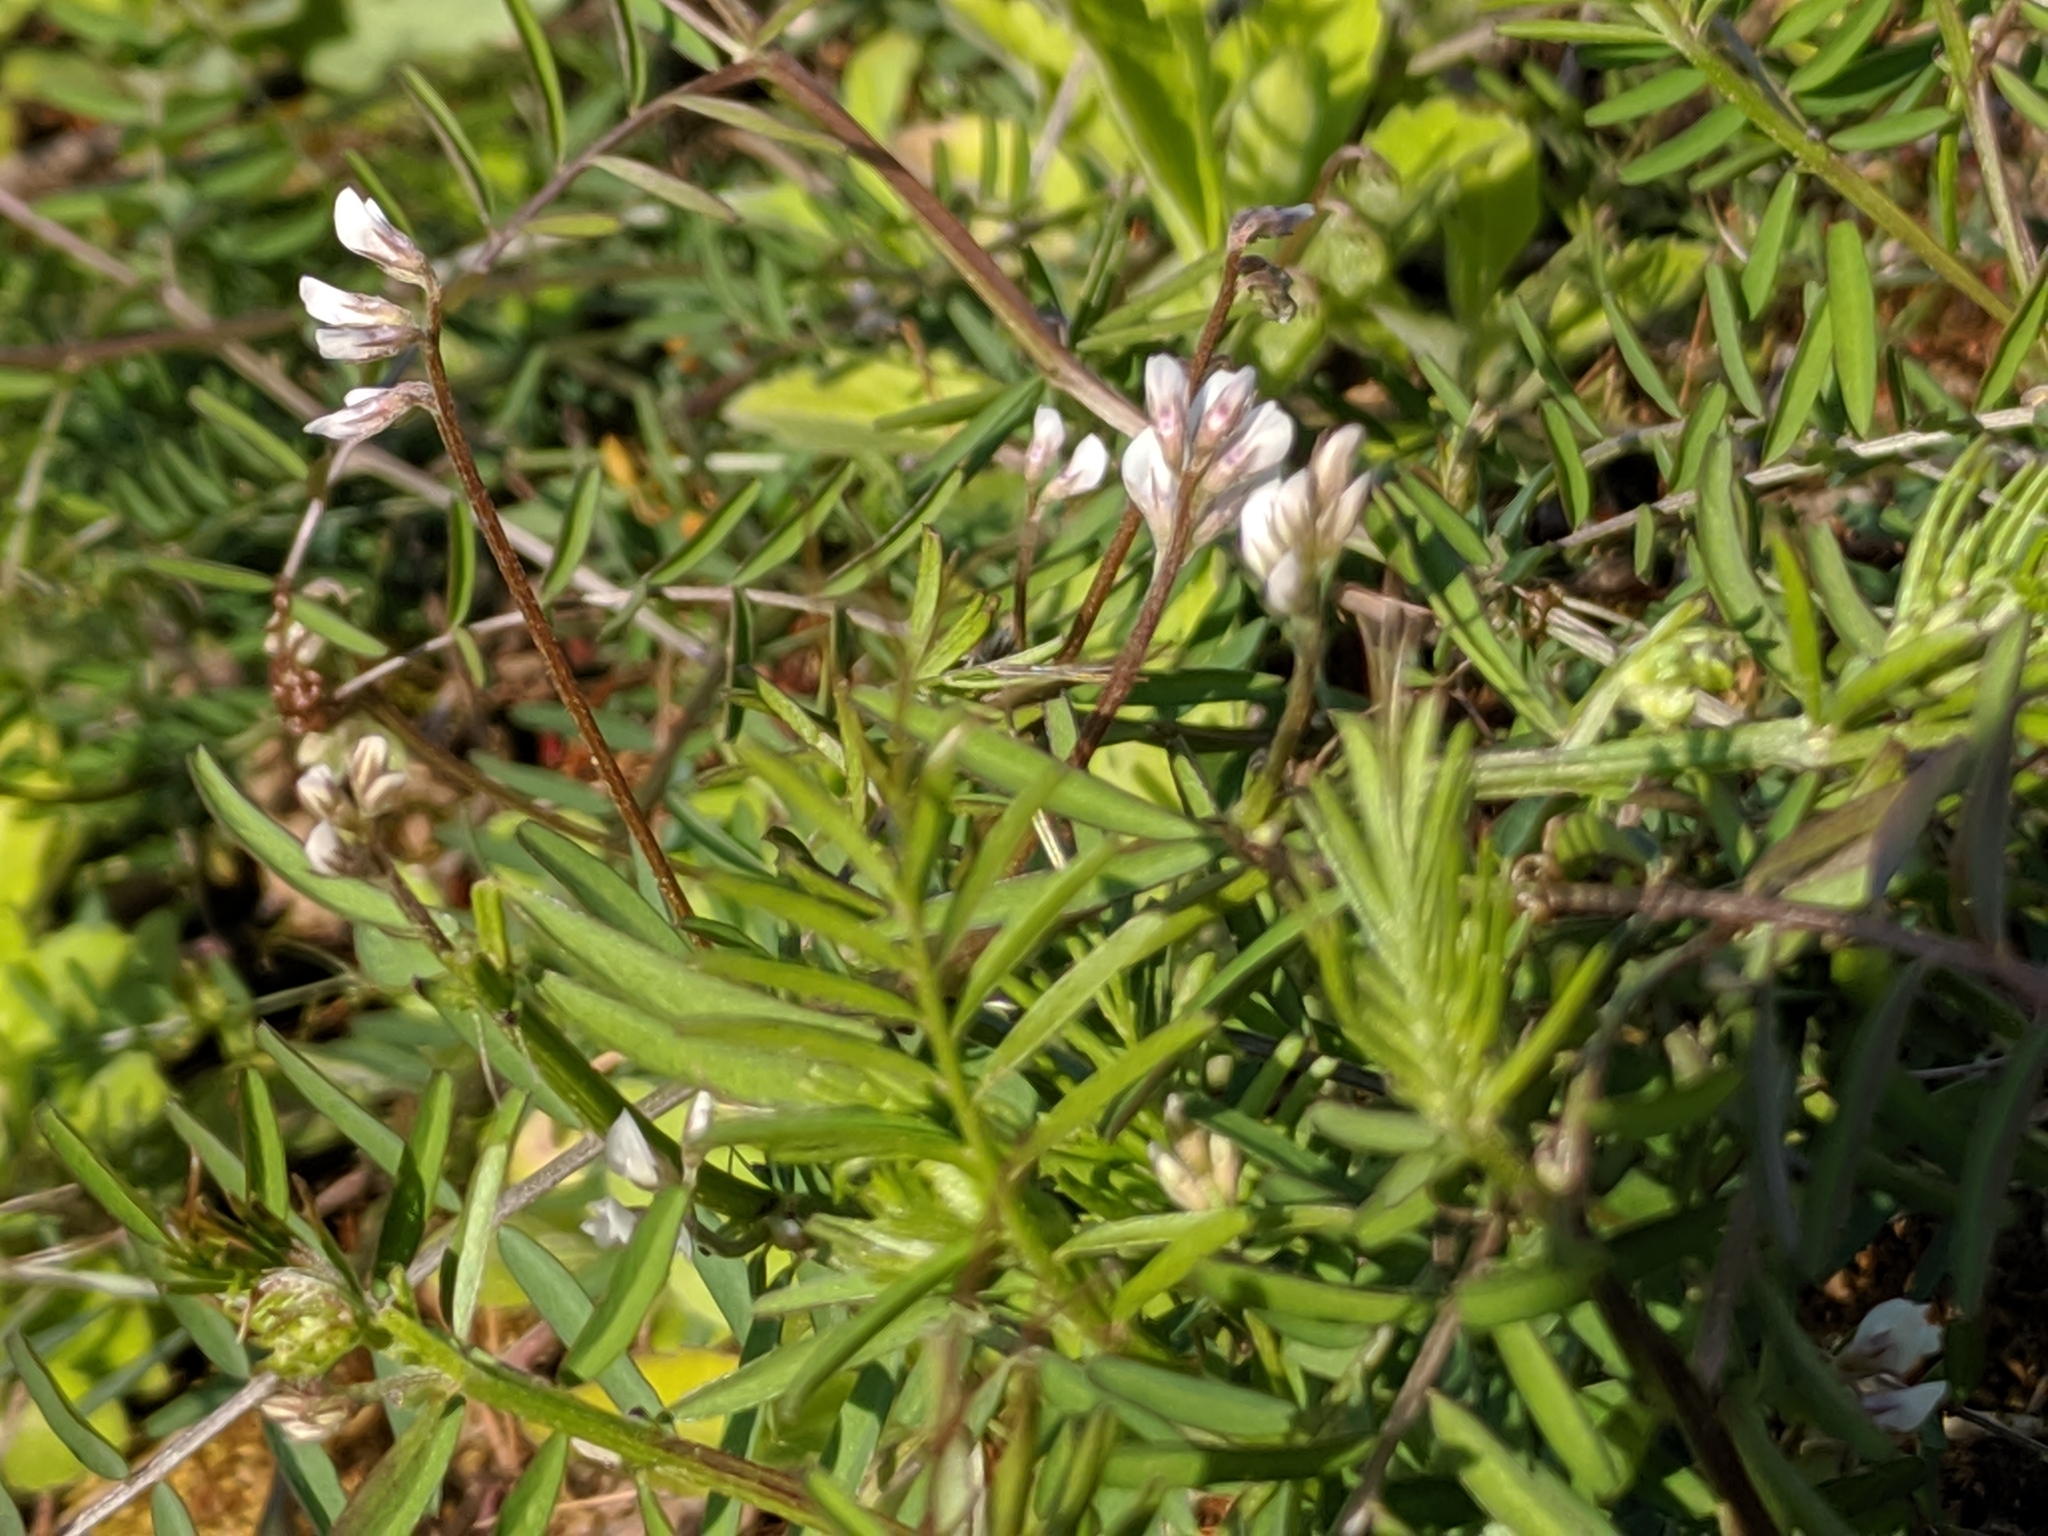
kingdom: Plantae
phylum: Tracheophyta
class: Magnoliopsida
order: Fabales
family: Fabaceae
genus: Vicia
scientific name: Vicia hirsuta
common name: Tiny vetch
